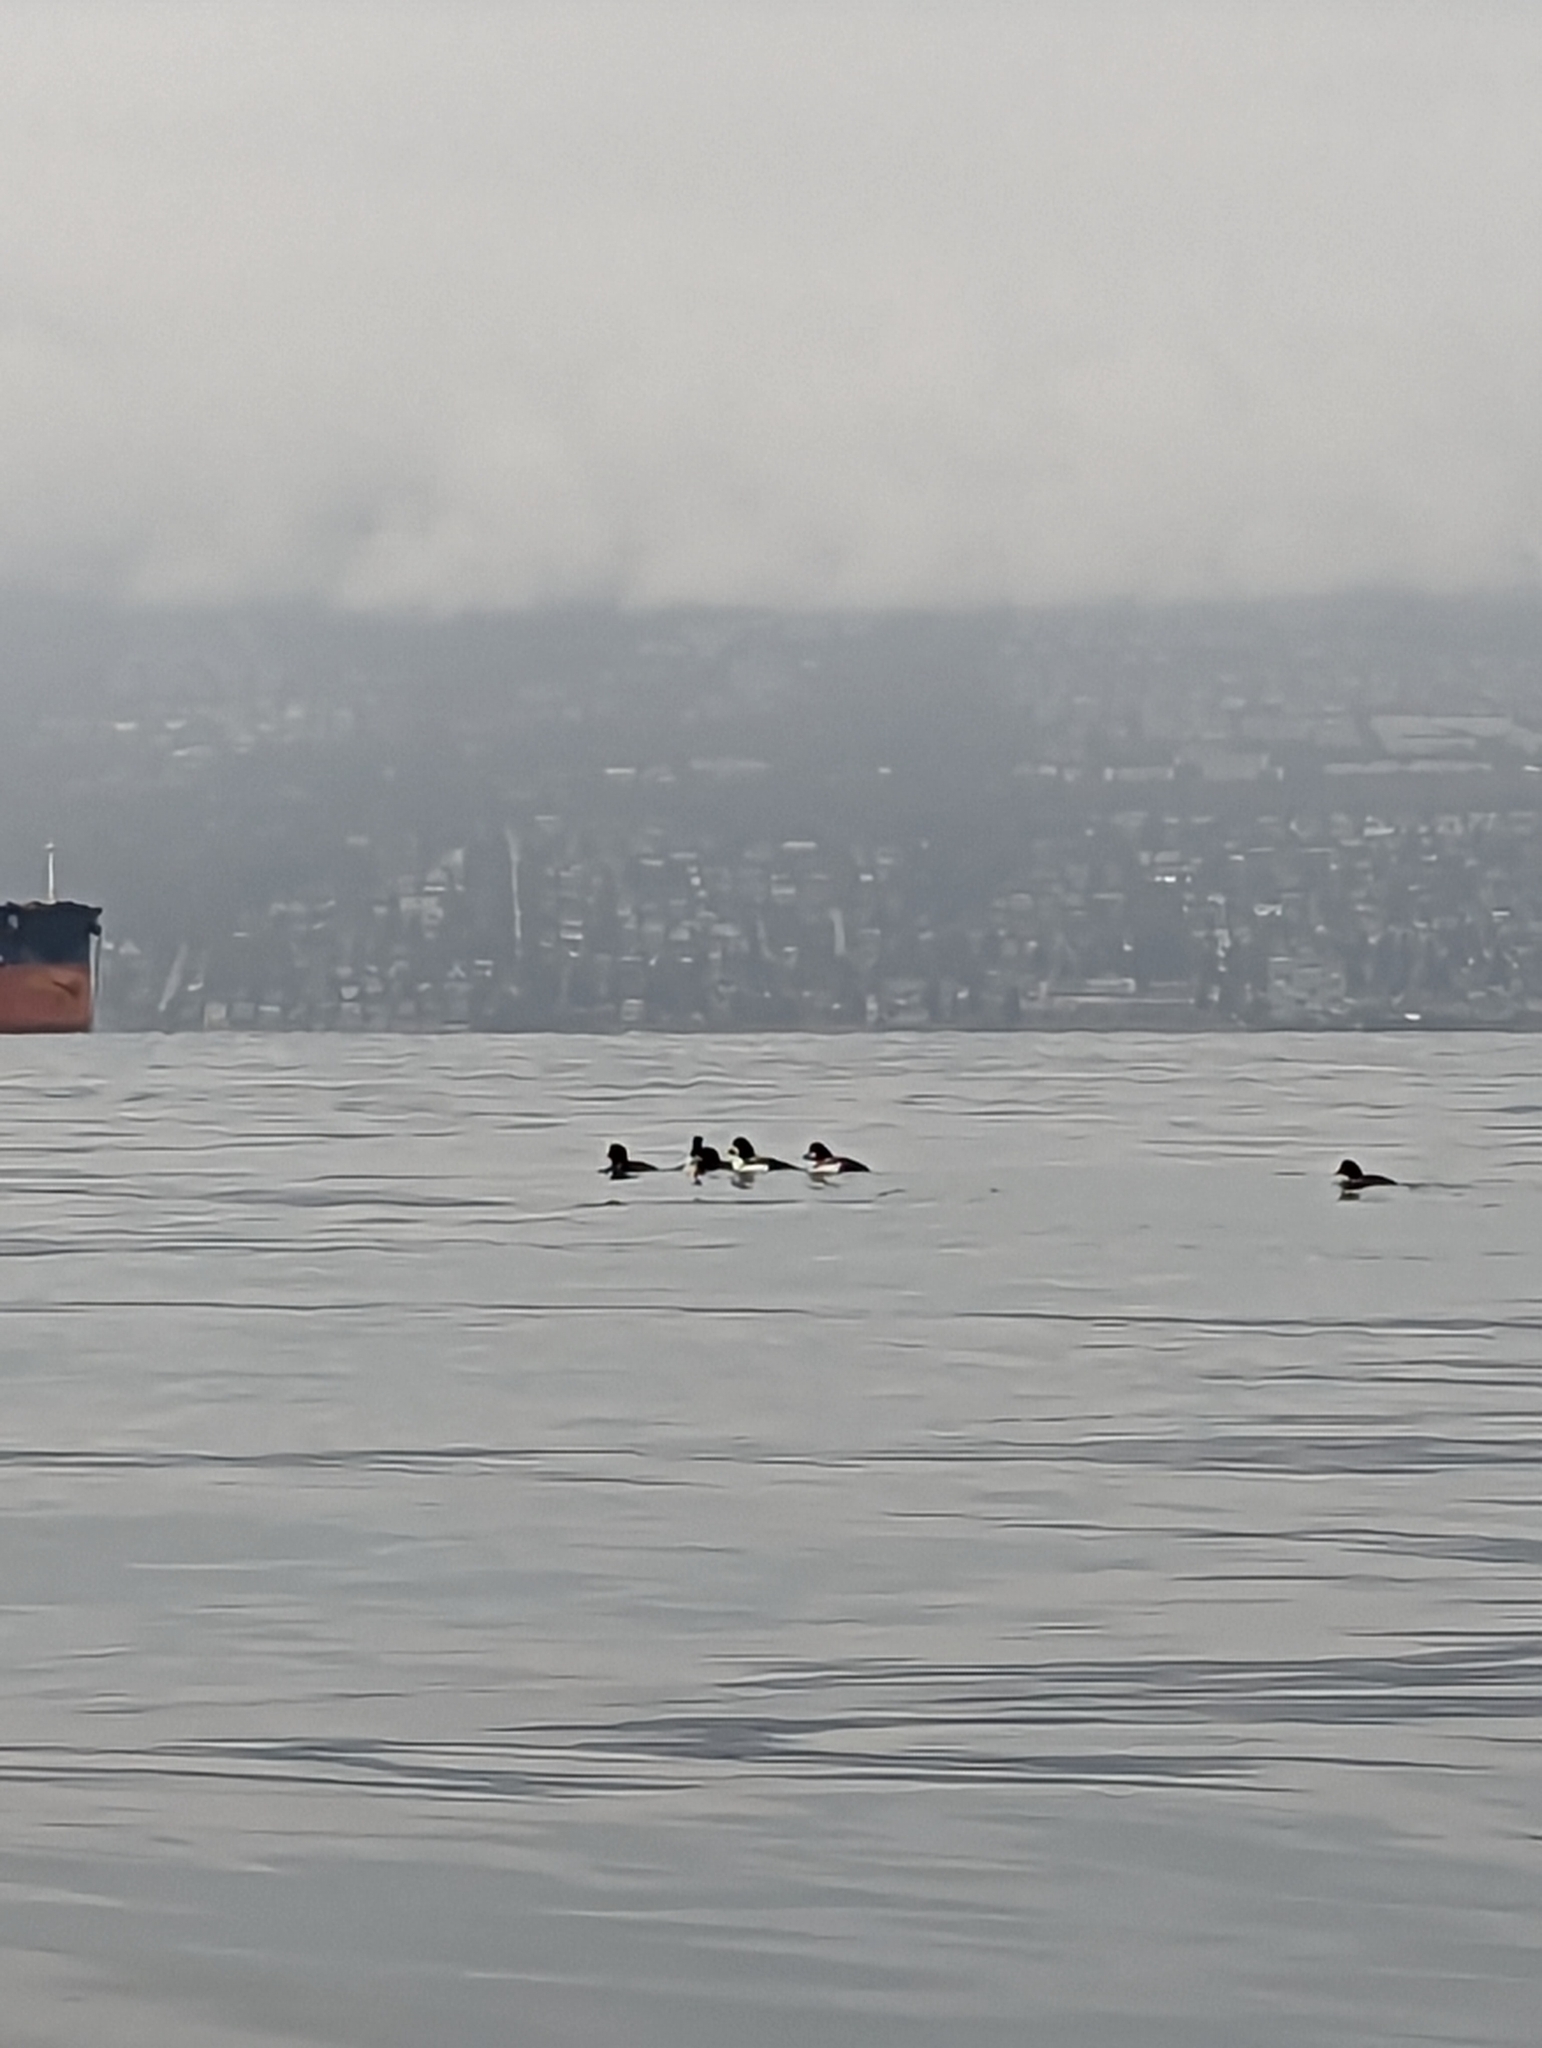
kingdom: Animalia
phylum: Chordata
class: Aves
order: Anseriformes
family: Anatidae
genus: Bucephala
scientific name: Bucephala islandica
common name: Barrow's goldeneye
